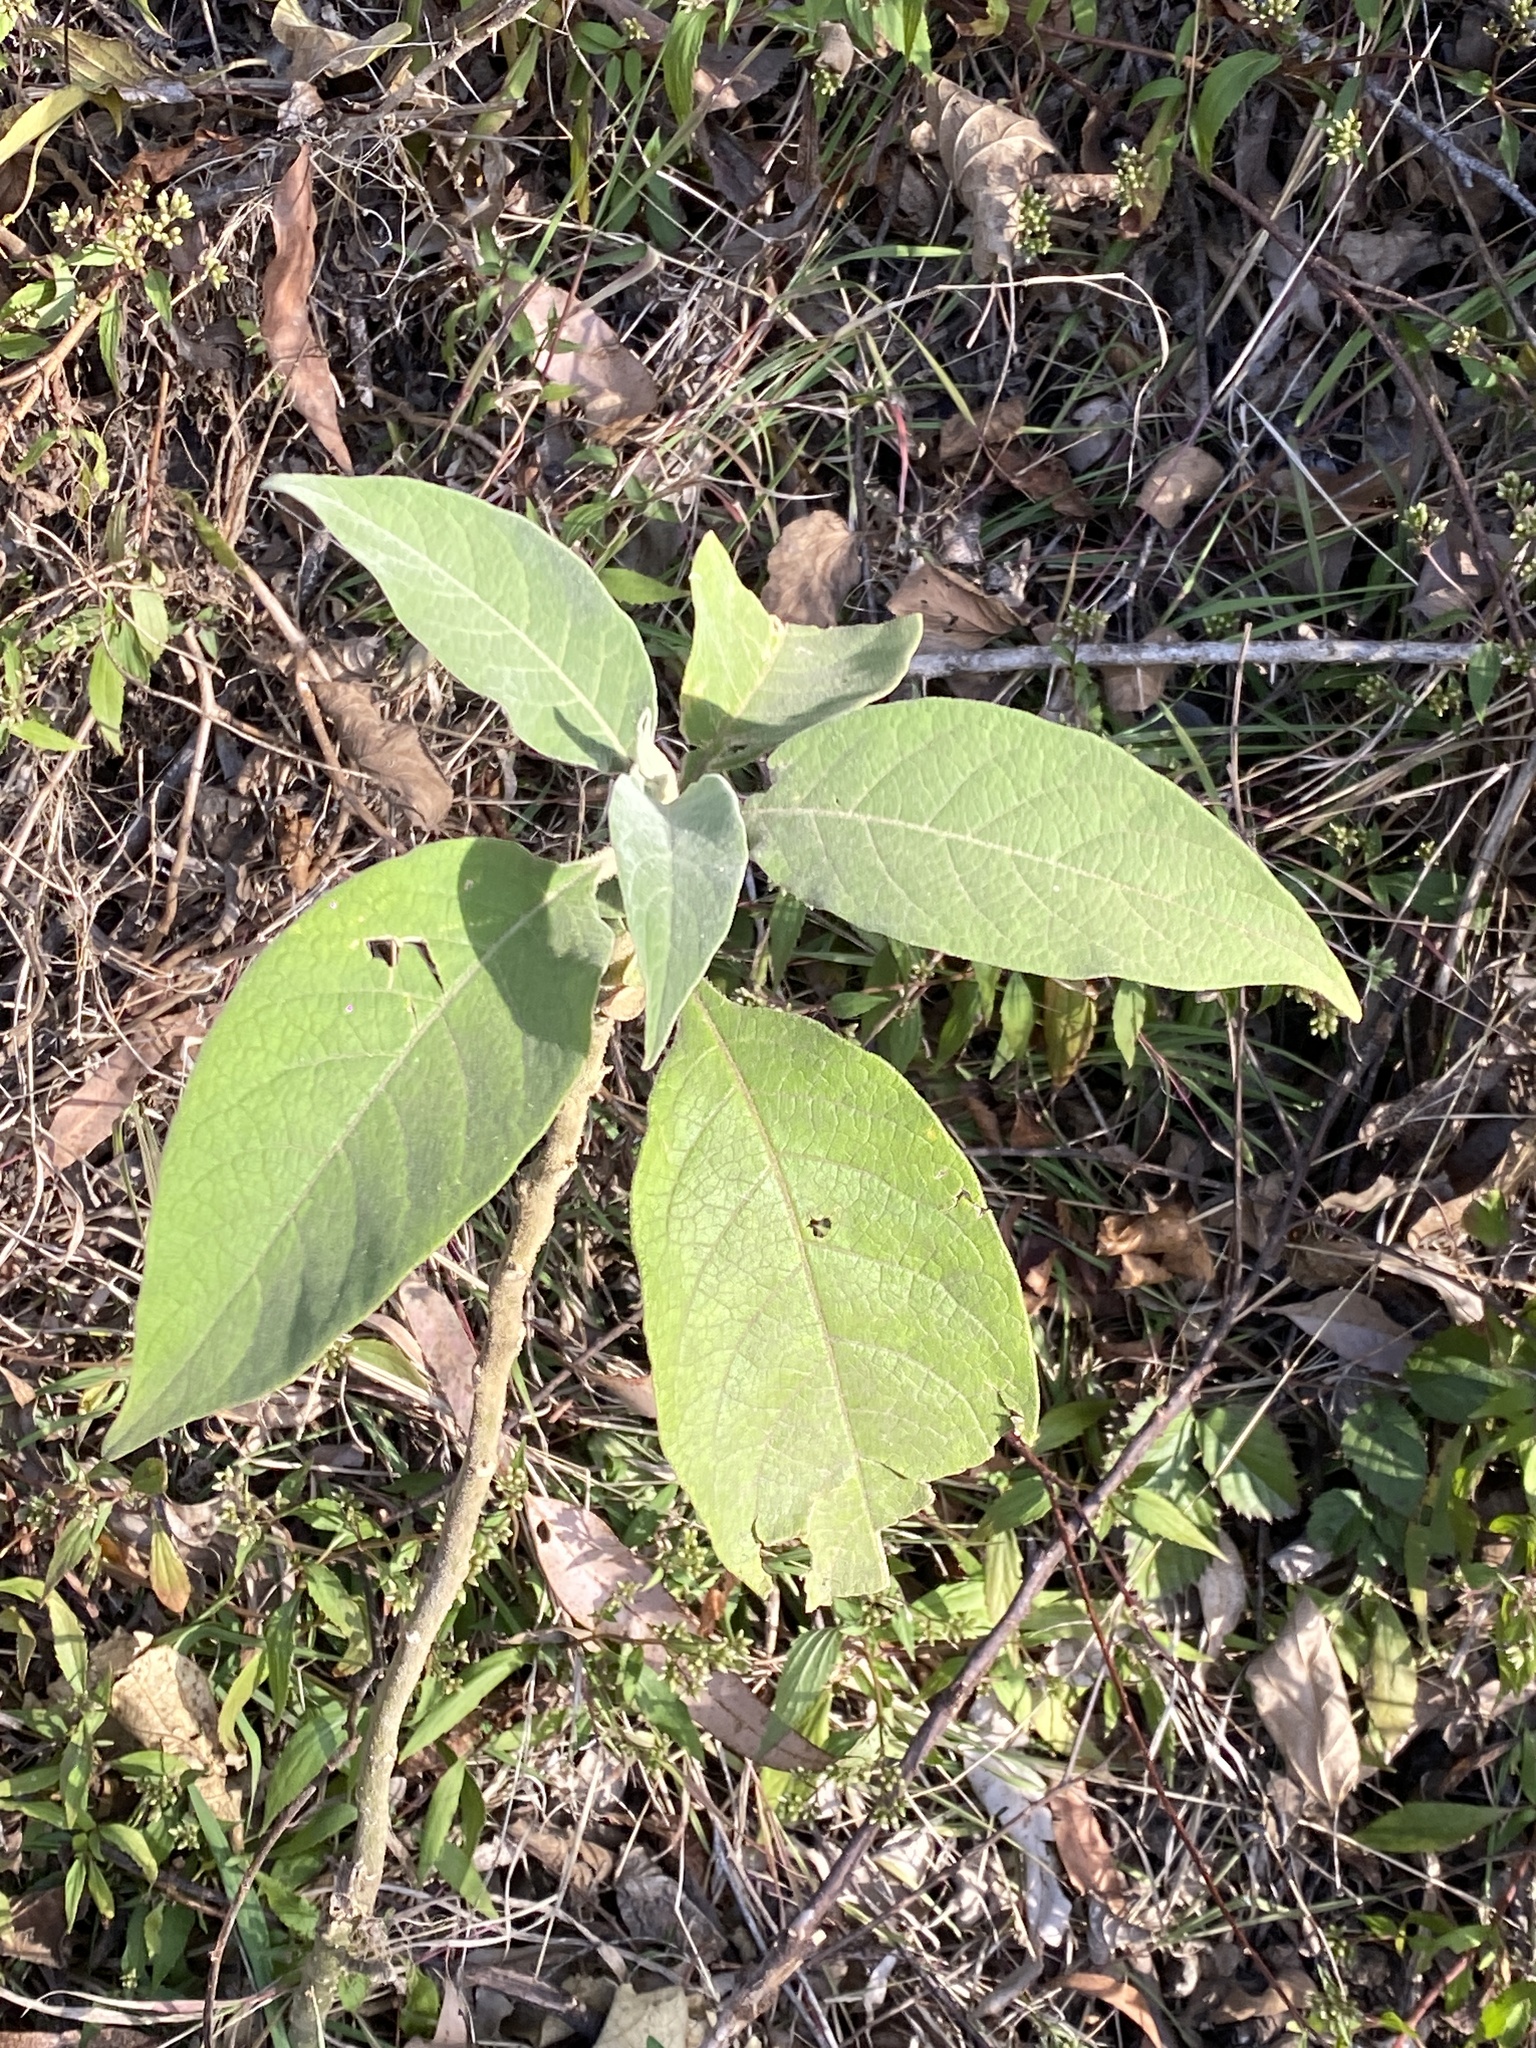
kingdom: Plantae
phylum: Tracheophyta
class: Magnoliopsida
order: Solanales
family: Solanaceae
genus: Solanum
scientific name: Solanum mauritianum
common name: Earleaf nightshade
